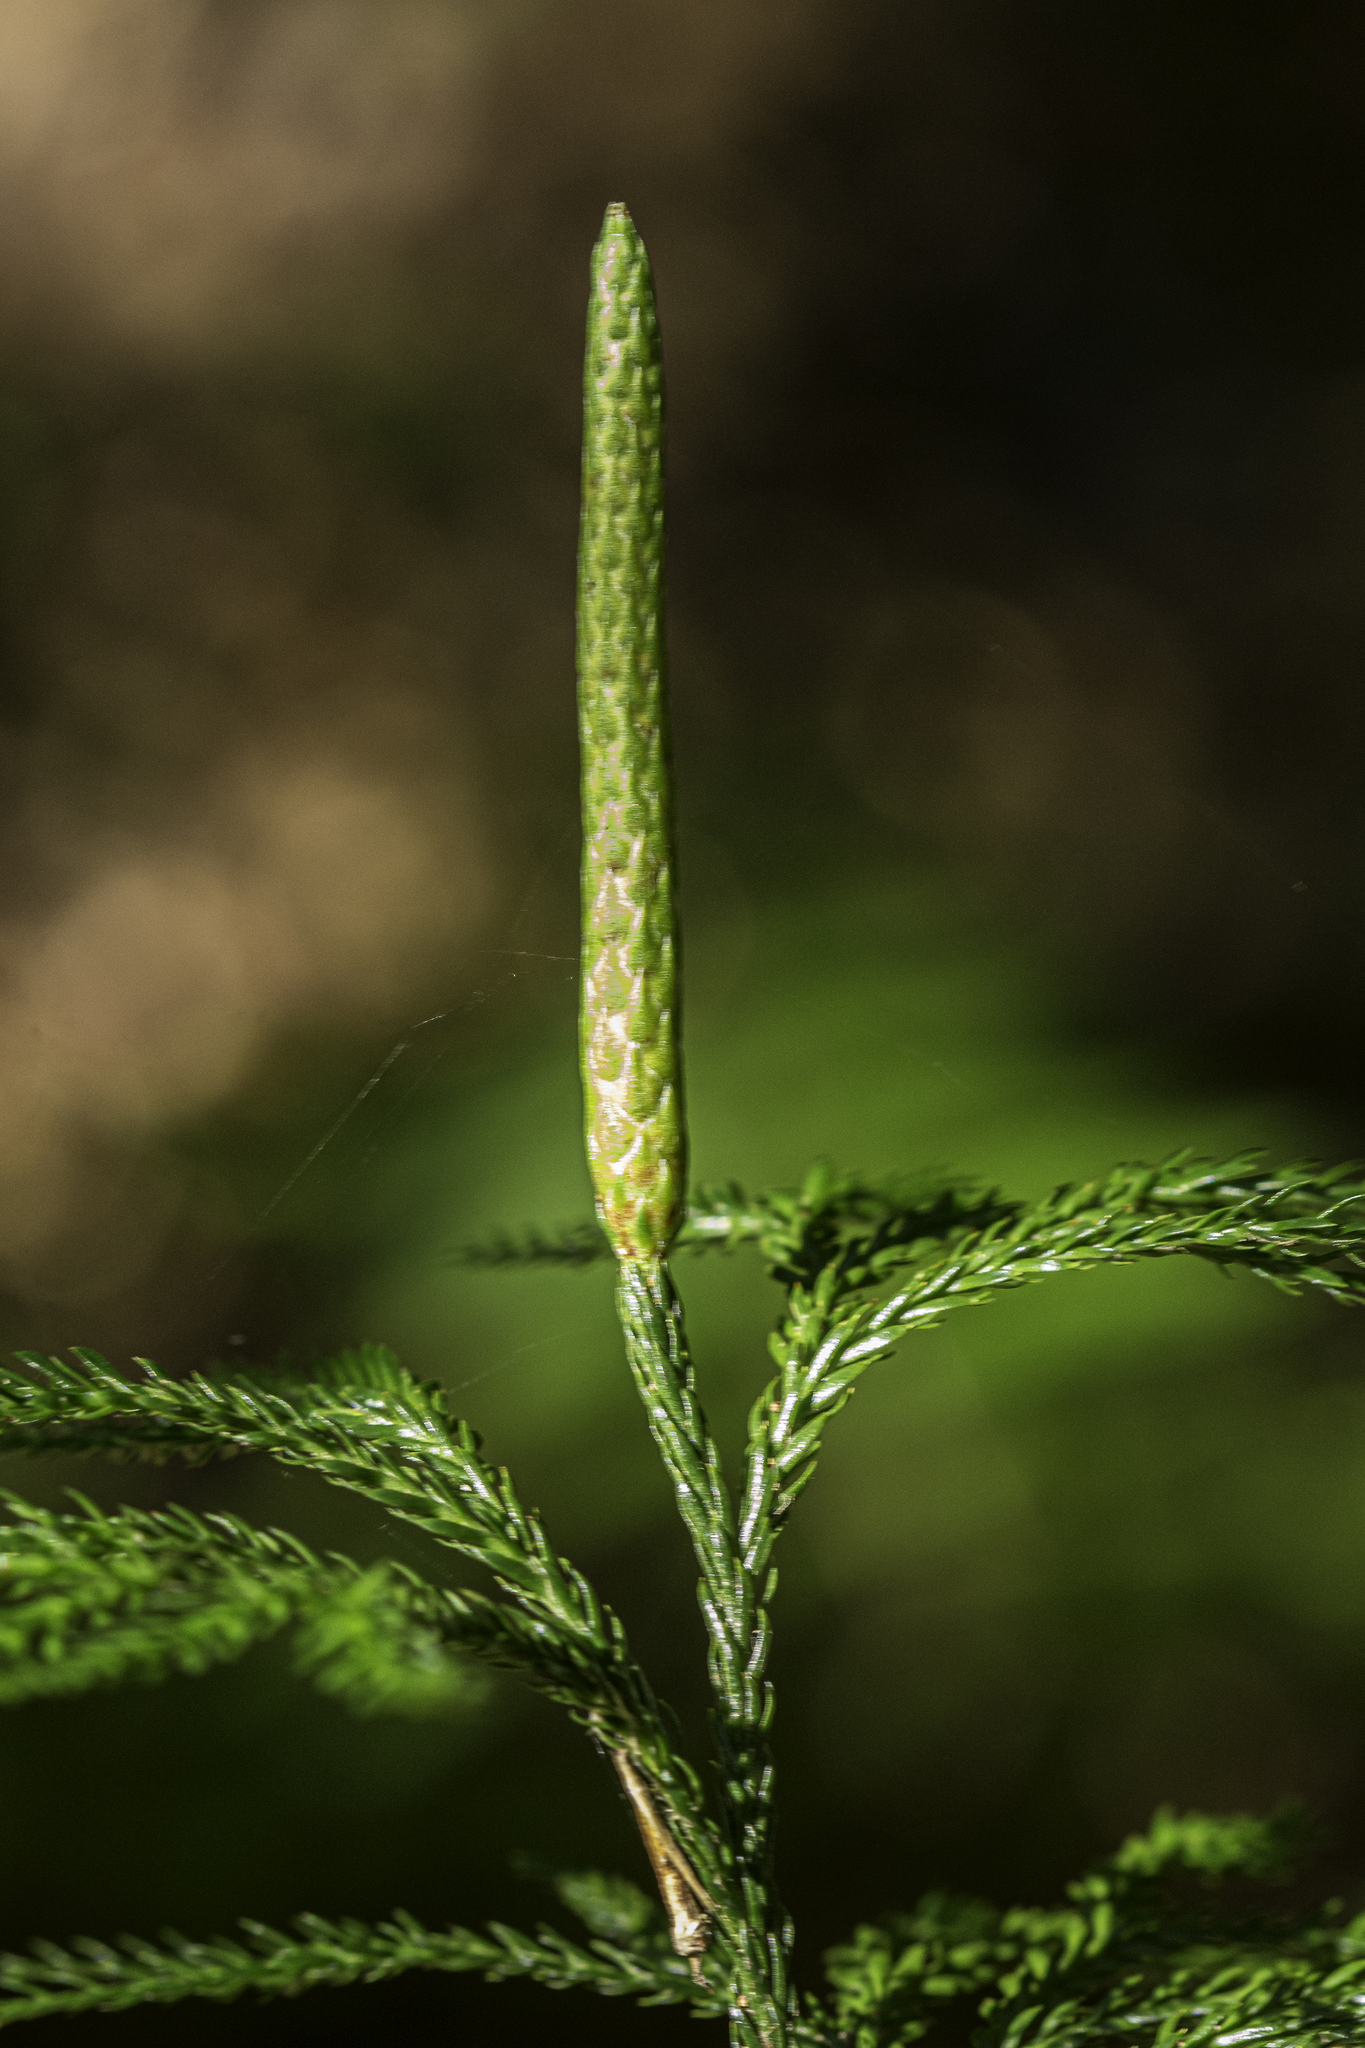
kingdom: Plantae
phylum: Tracheophyta
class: Lycopodiopsida
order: Lycopodiales
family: Lycopodiaceae
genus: Dendrolycopodium
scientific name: Dendrolycopodium obscurum
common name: Common ground-pine
